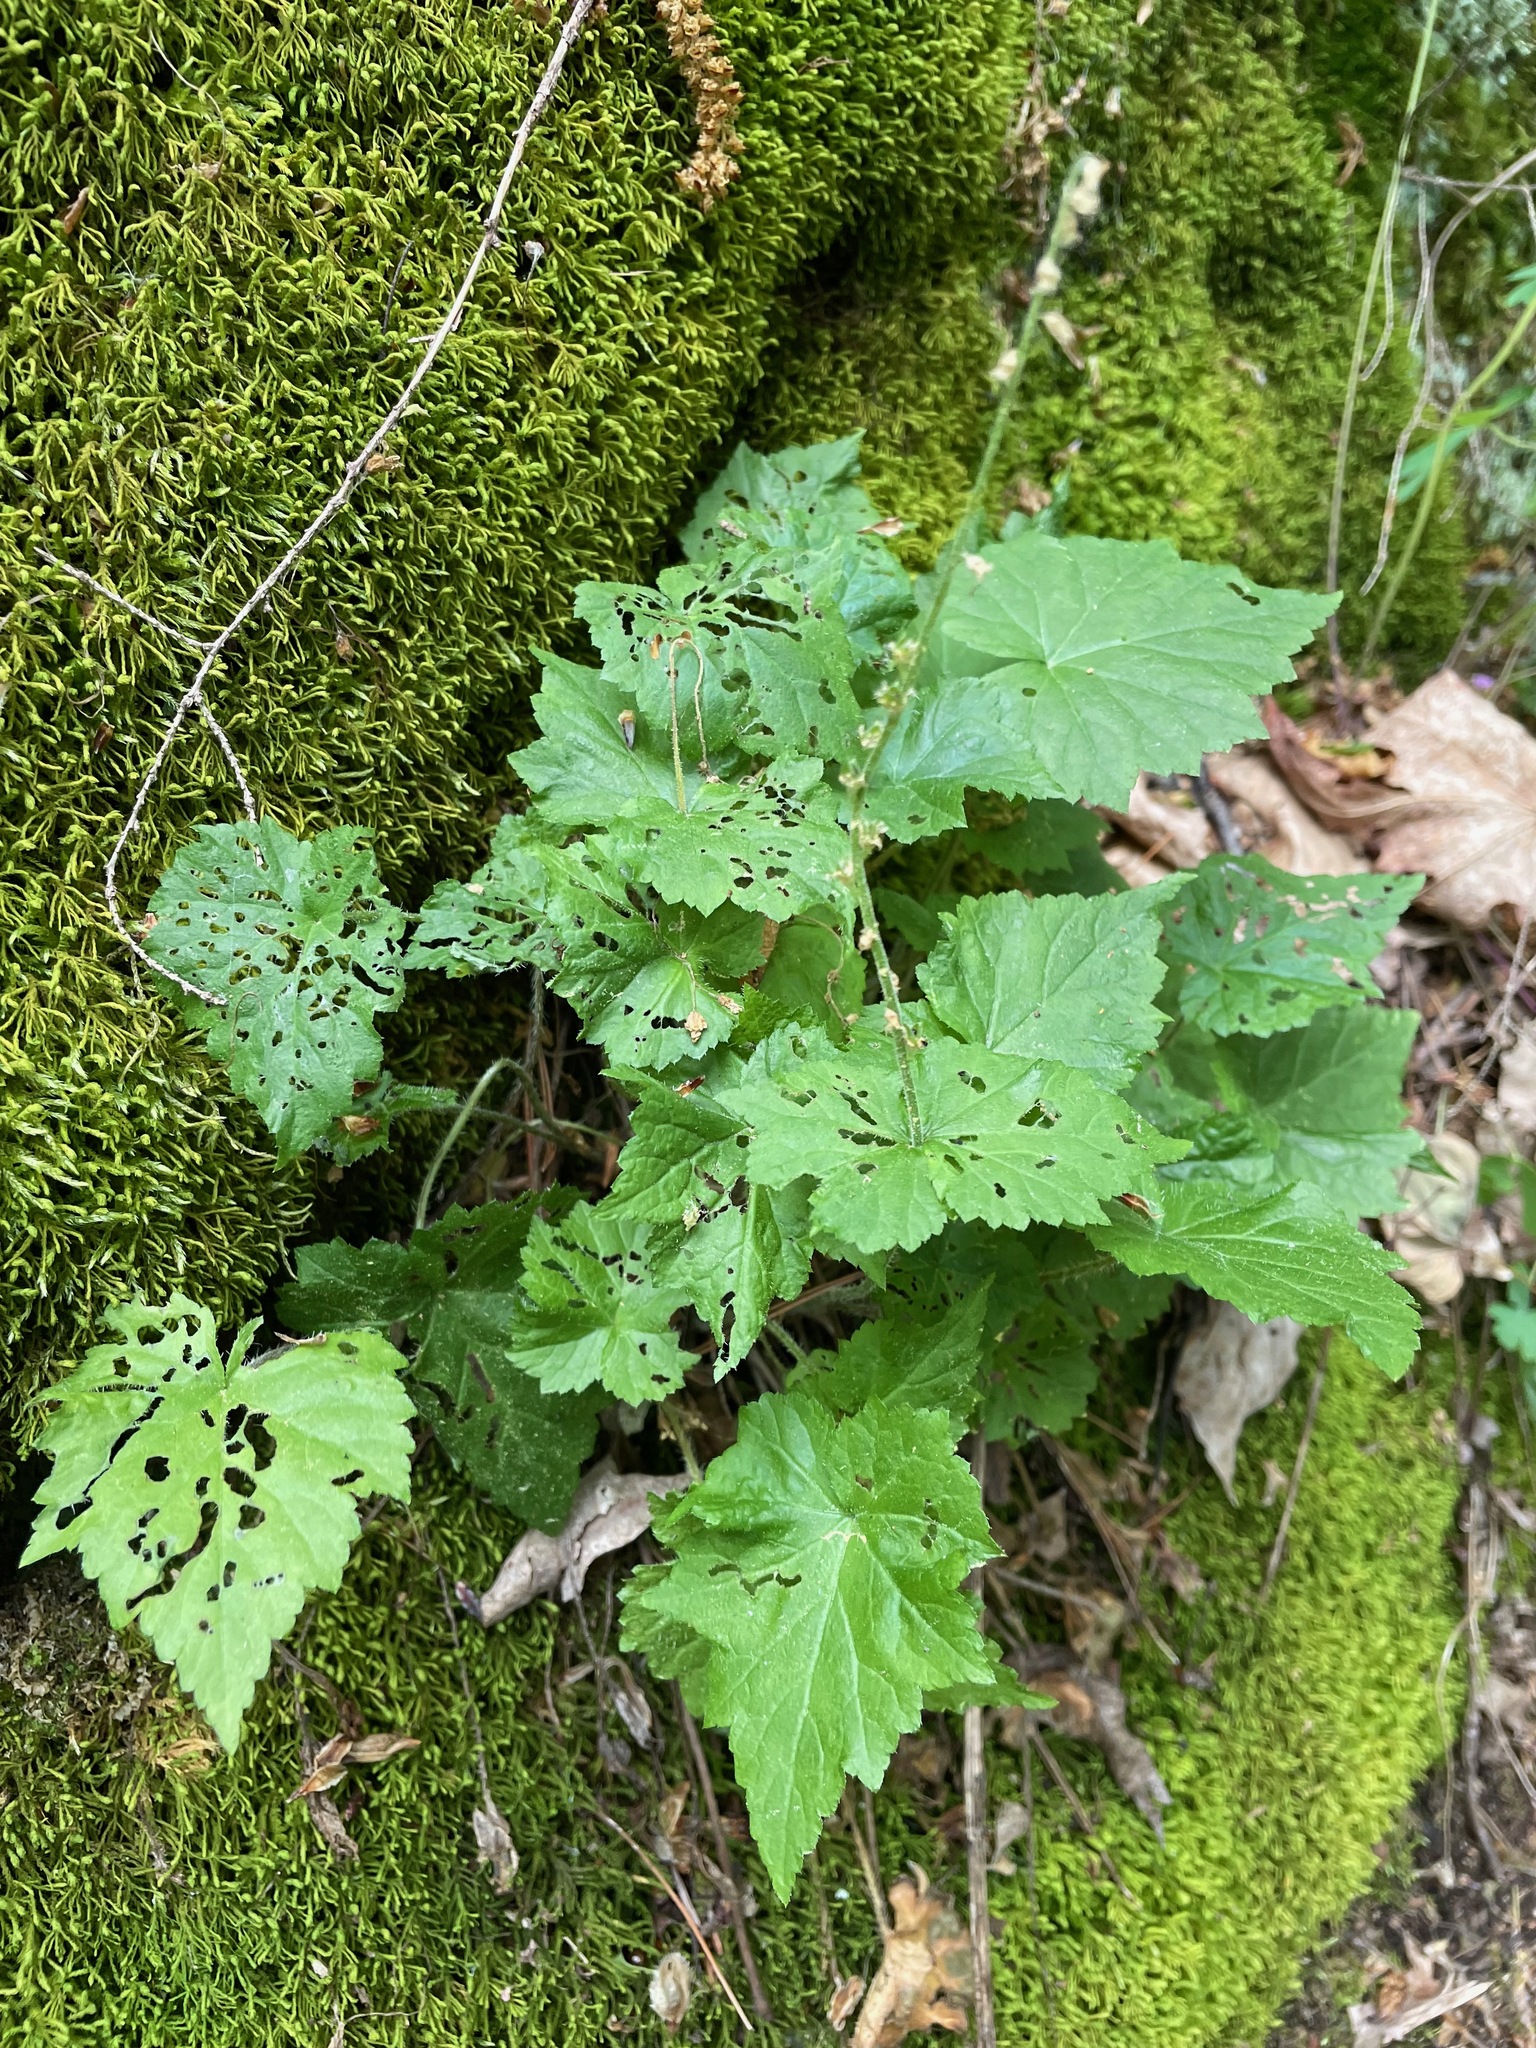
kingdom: Plantae
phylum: Tracheophyta
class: Magnoliopsida
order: Saxifragales
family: Saxifragaceae
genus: Mitella
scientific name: Mitella diphylla
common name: Coolwort
